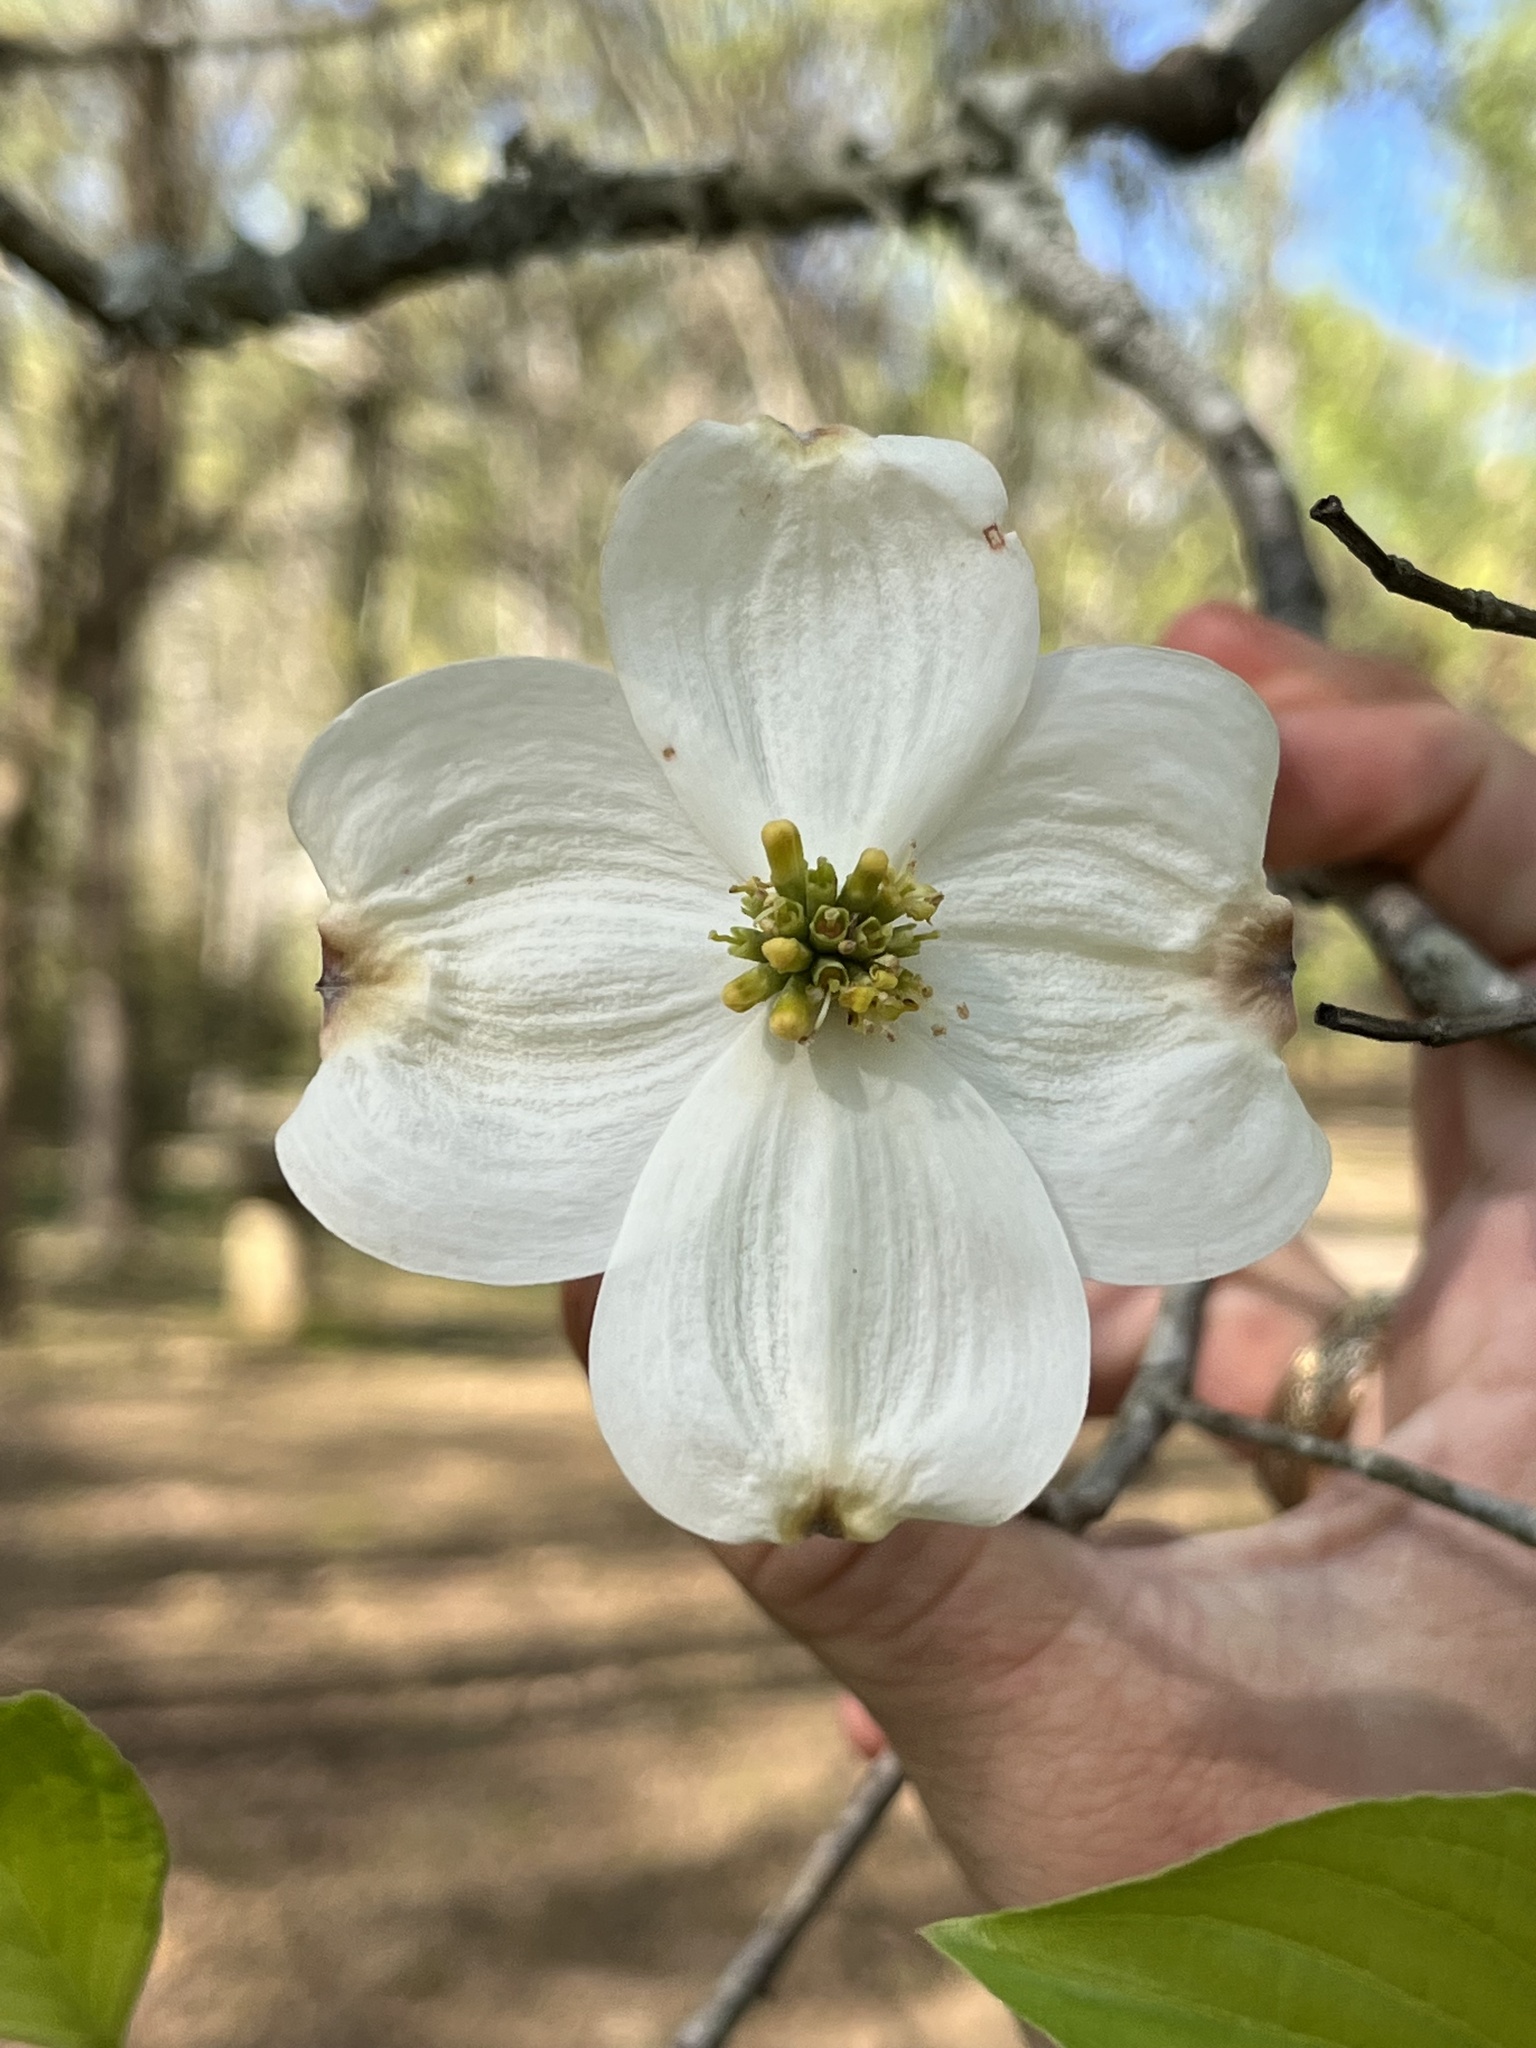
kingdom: Plantae
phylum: Tracheophyta
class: Magnoliopsida
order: Cornales
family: Cornaceae
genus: Cornus
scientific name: Cornus florida
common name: Flowering dogwood
